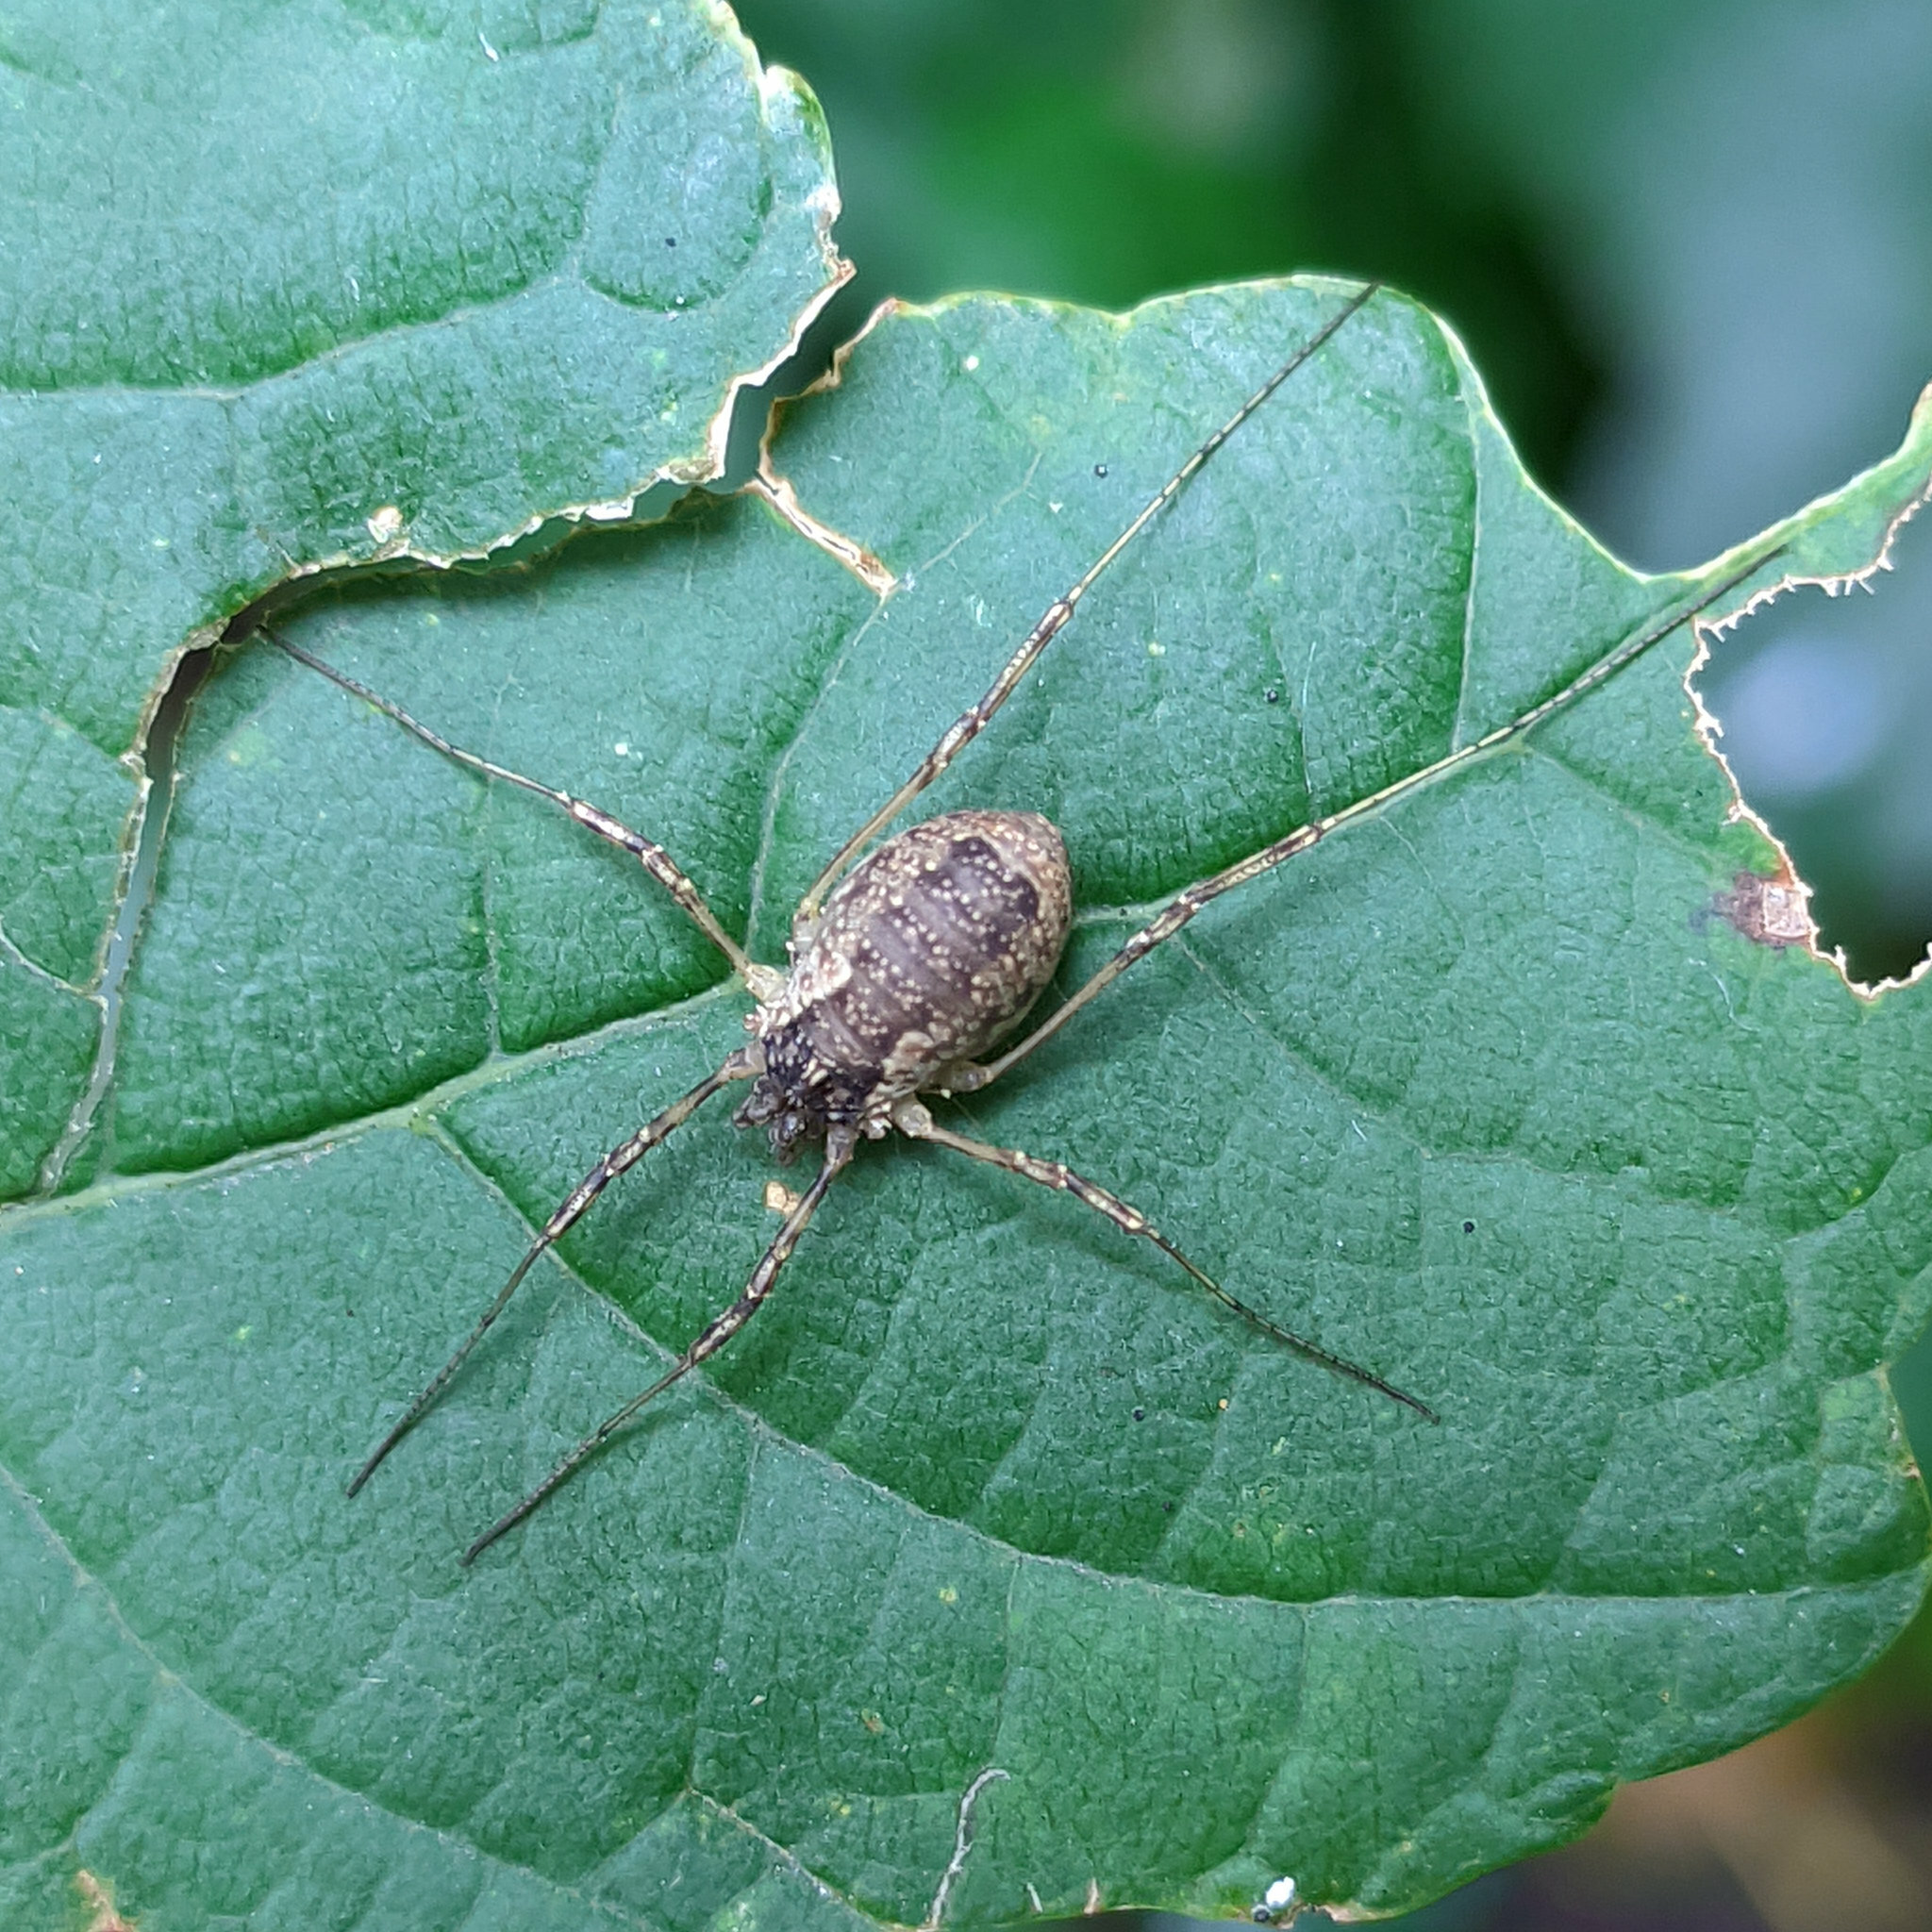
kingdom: Animalia
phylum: Arthropoda
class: Arachnida
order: Opiliones
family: Phalangiidae
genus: Oligolophus
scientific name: Oligolophus tridens
